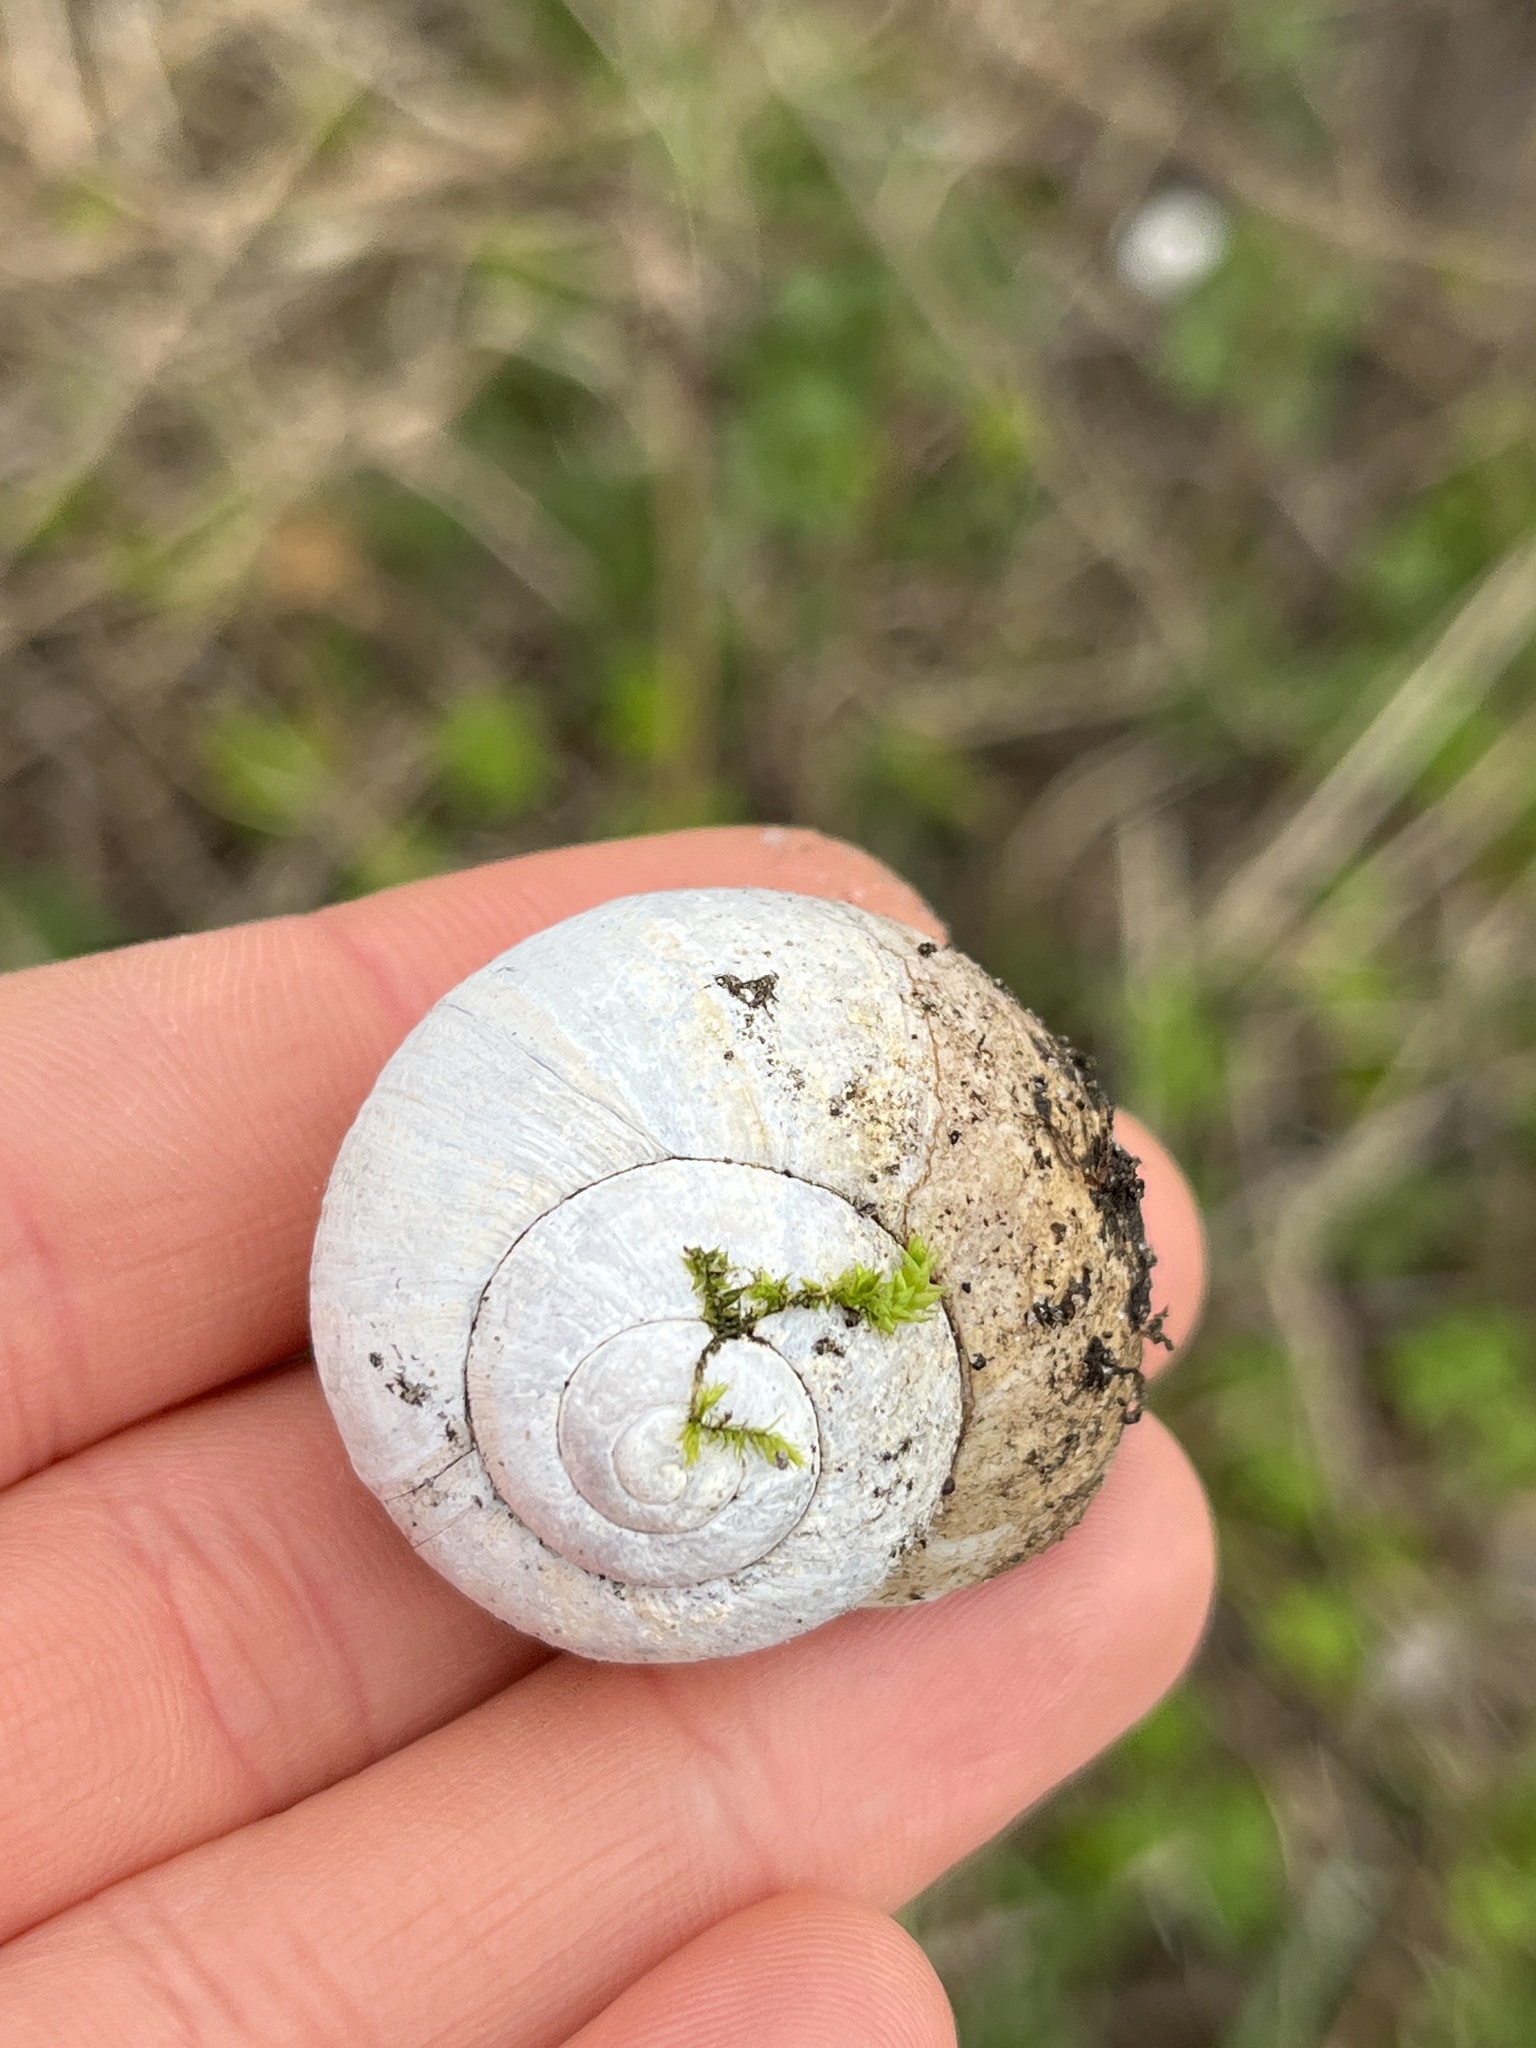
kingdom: Animalia
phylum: Mollusca
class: Gastropoda
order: Stylommatophora
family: Helicidae
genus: Helix
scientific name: Helix pomatia
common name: Roman snail
